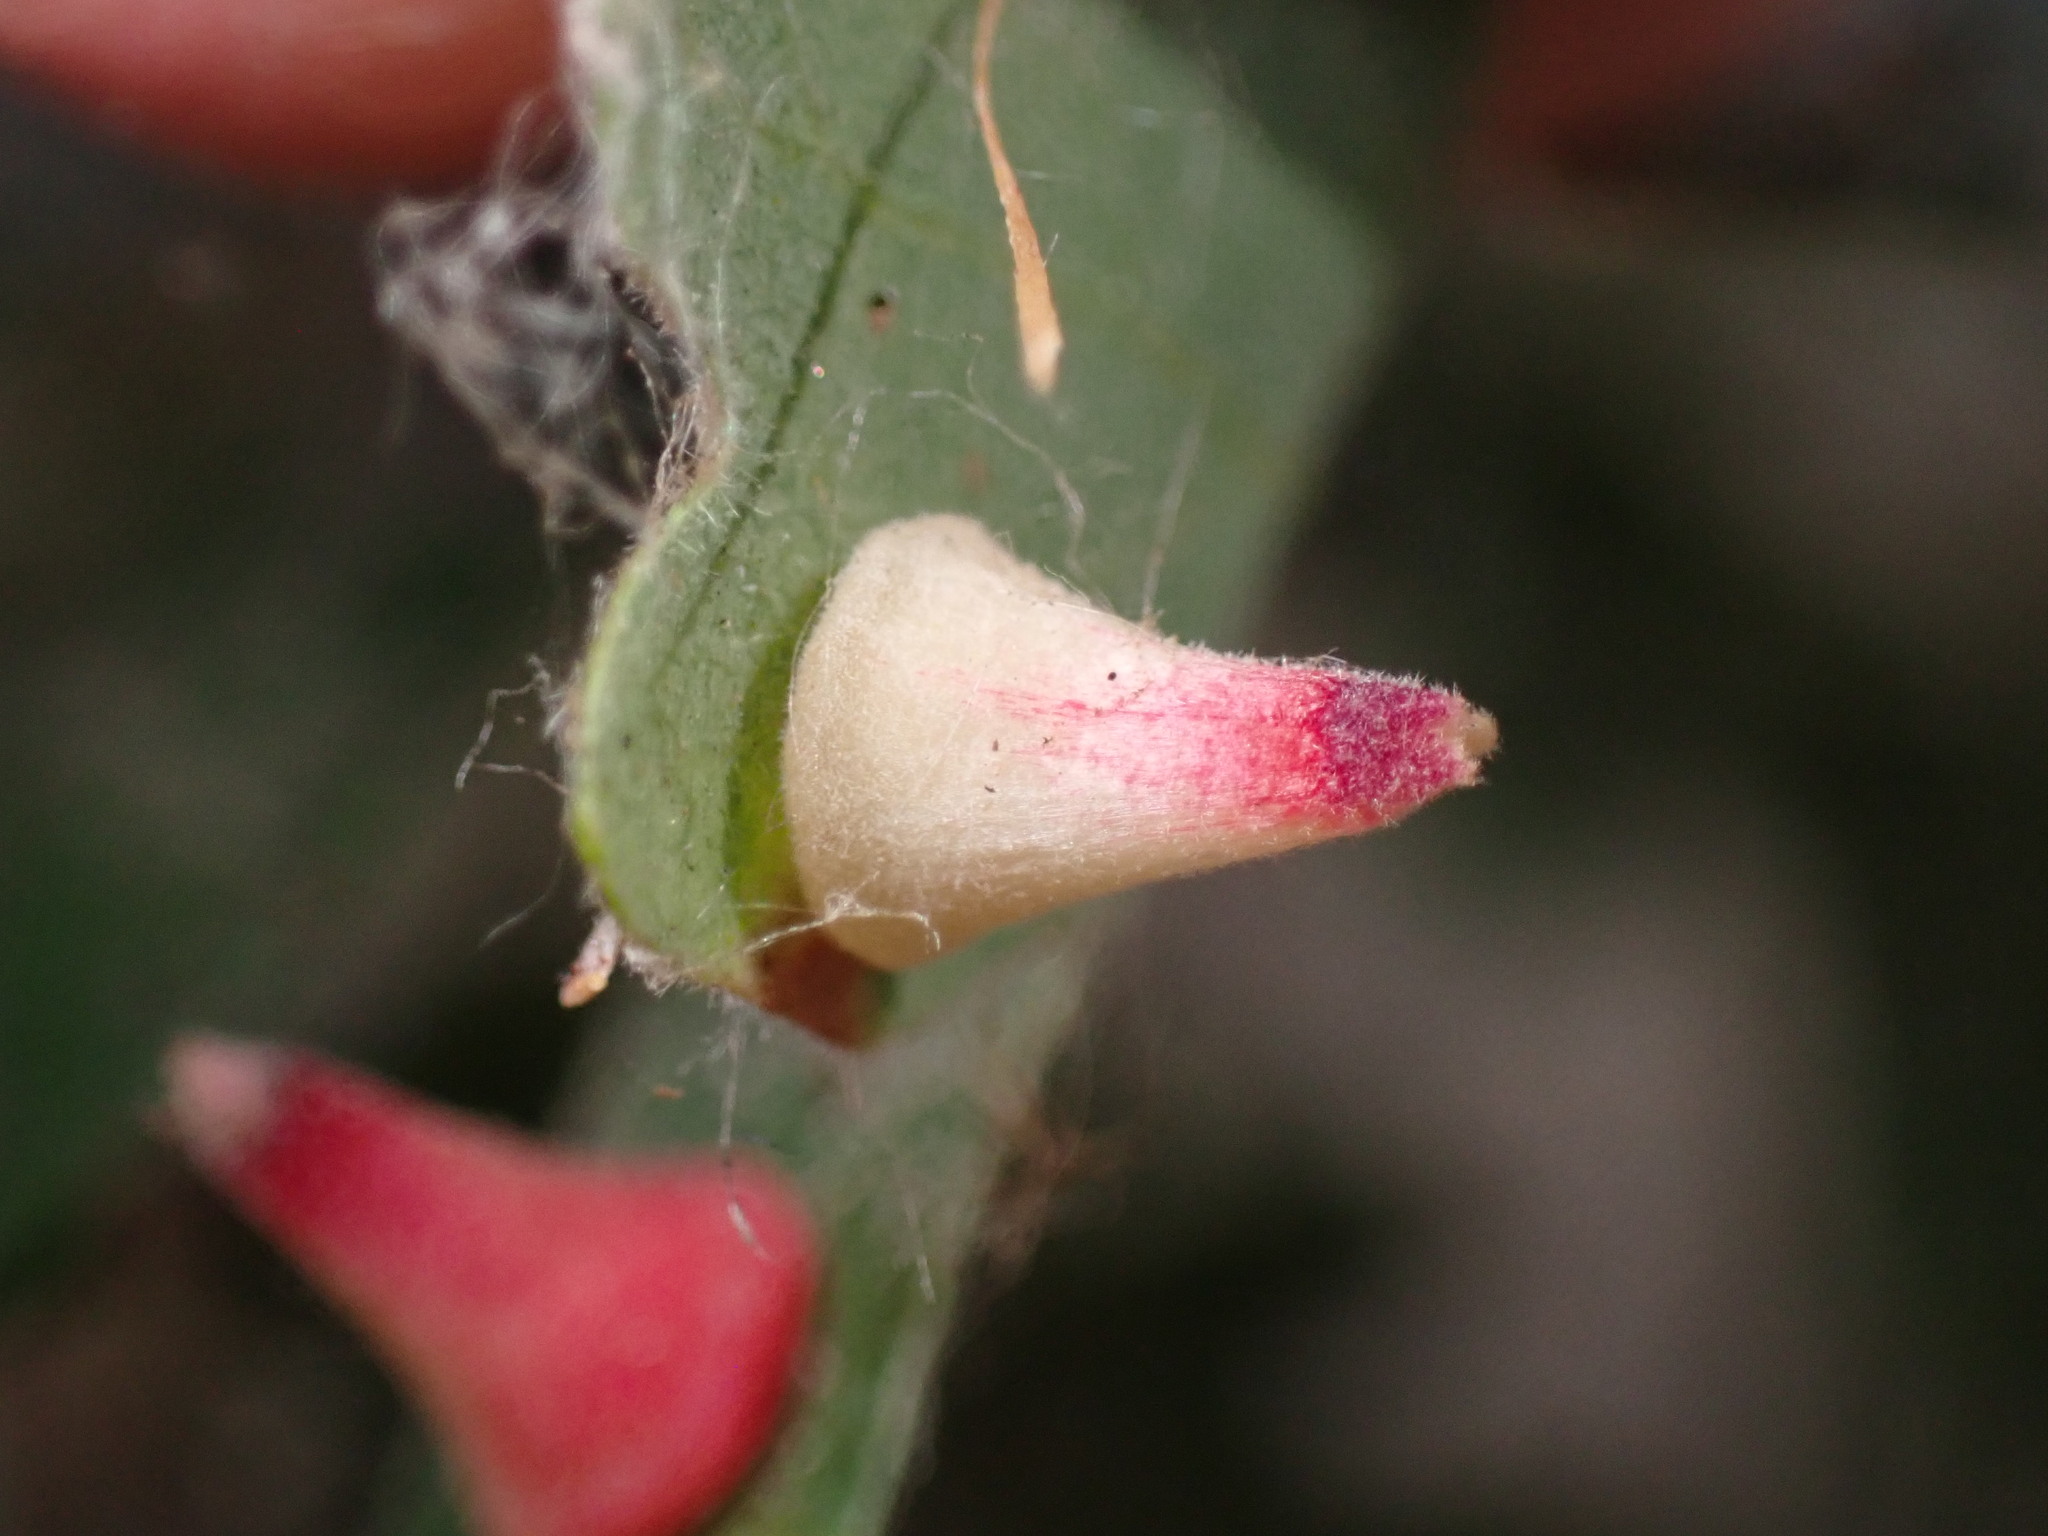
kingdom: Animalia
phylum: Arthropoda
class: Insecta
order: Hymenoptera
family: Cynipidae
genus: Andricus
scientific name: Andricus
